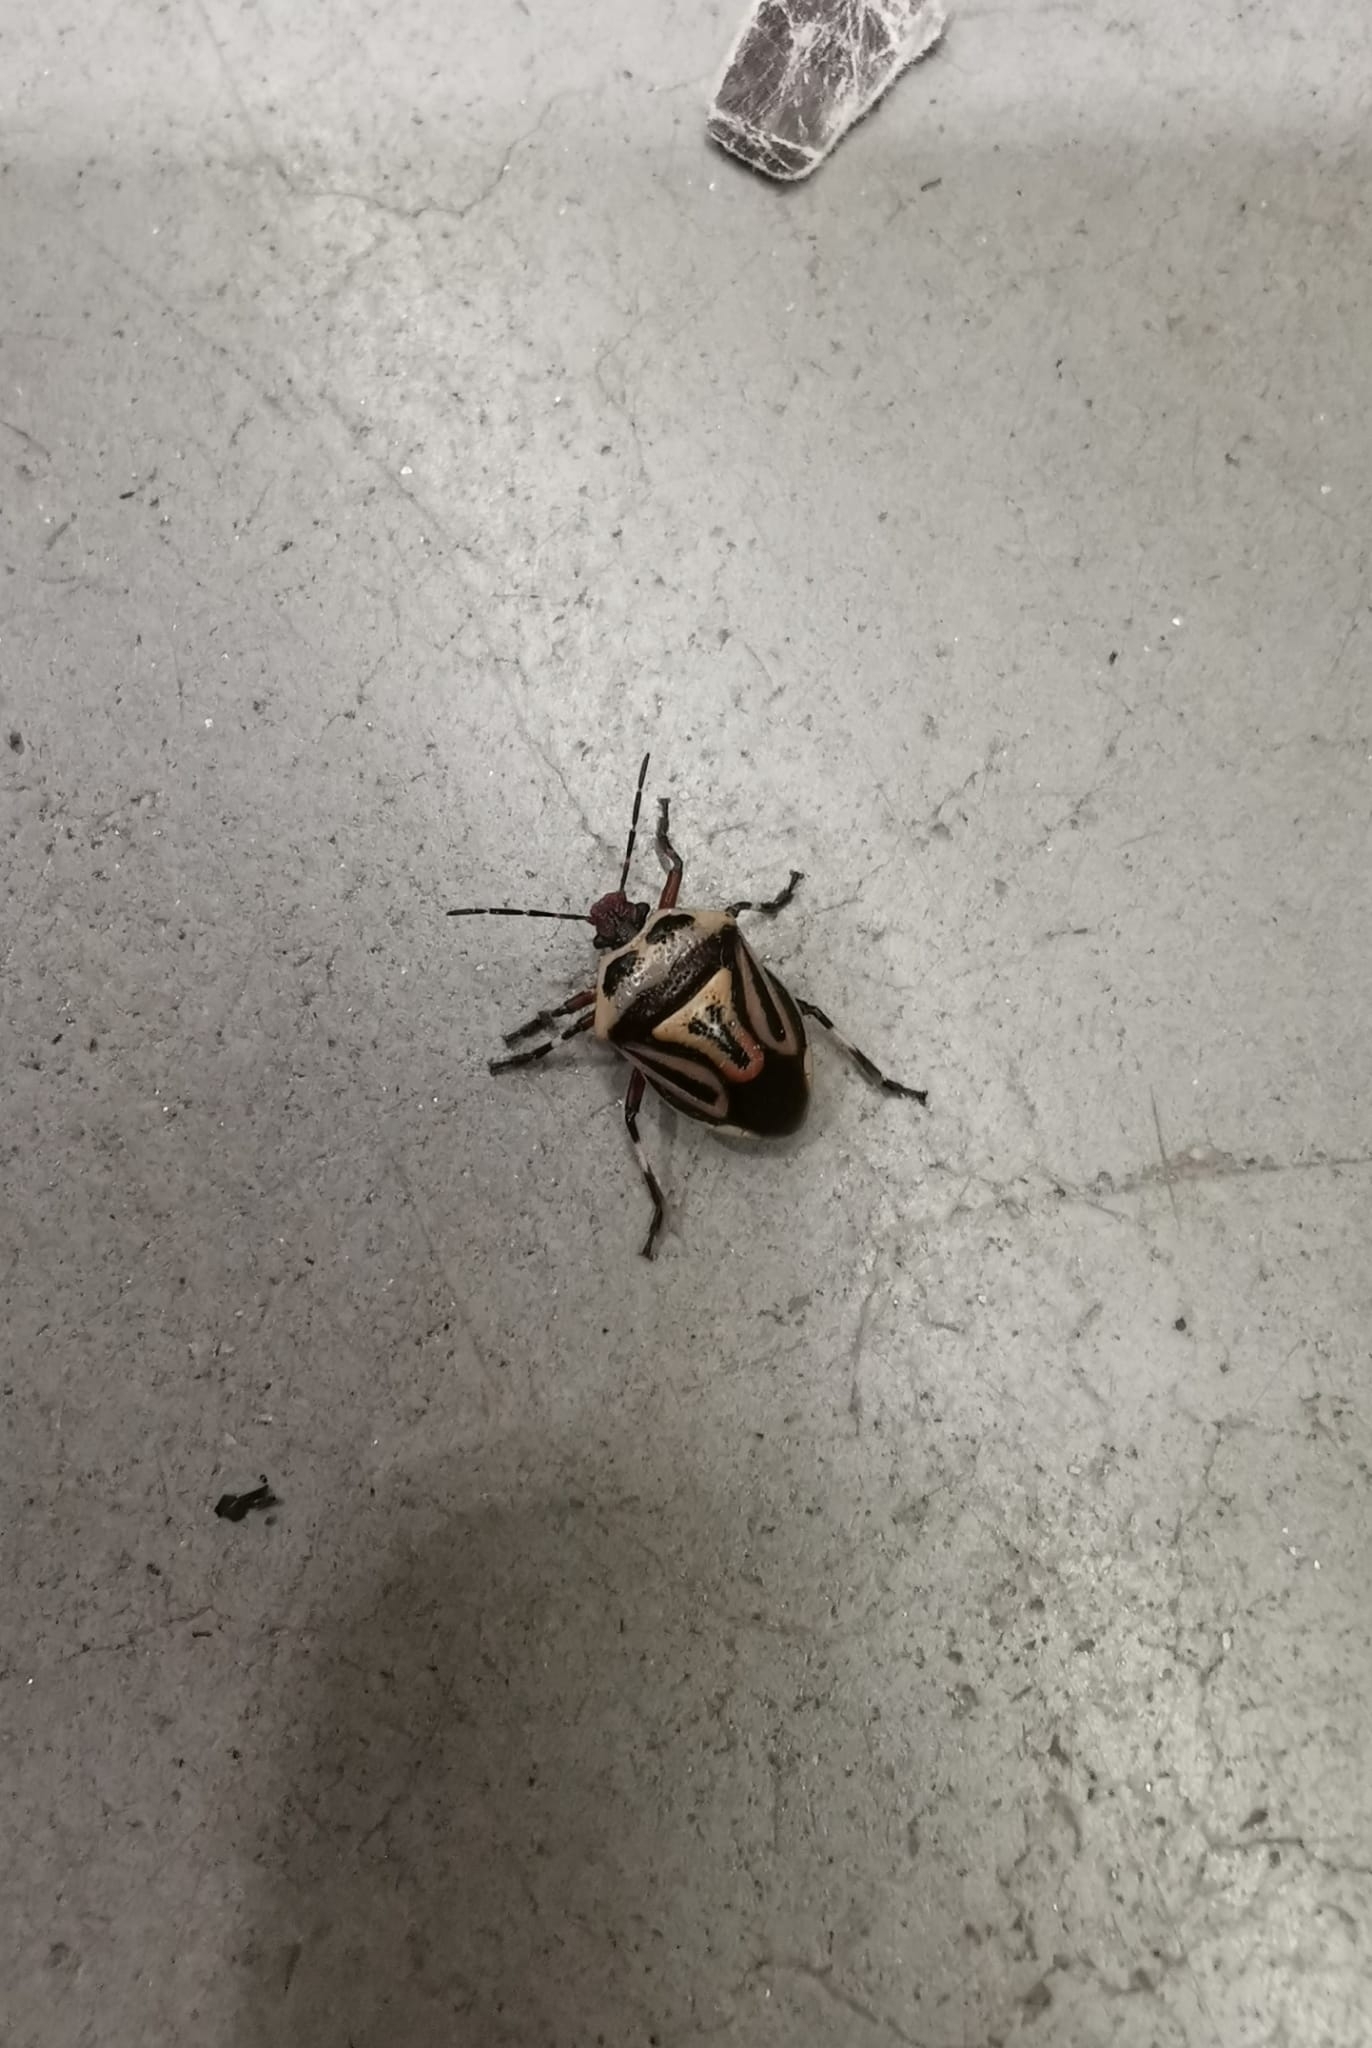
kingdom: Animalia
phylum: Arthropoda
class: Insecta
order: Hemiptera
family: Pentatomidae
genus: Perillus
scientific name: Perillus bioculatus
